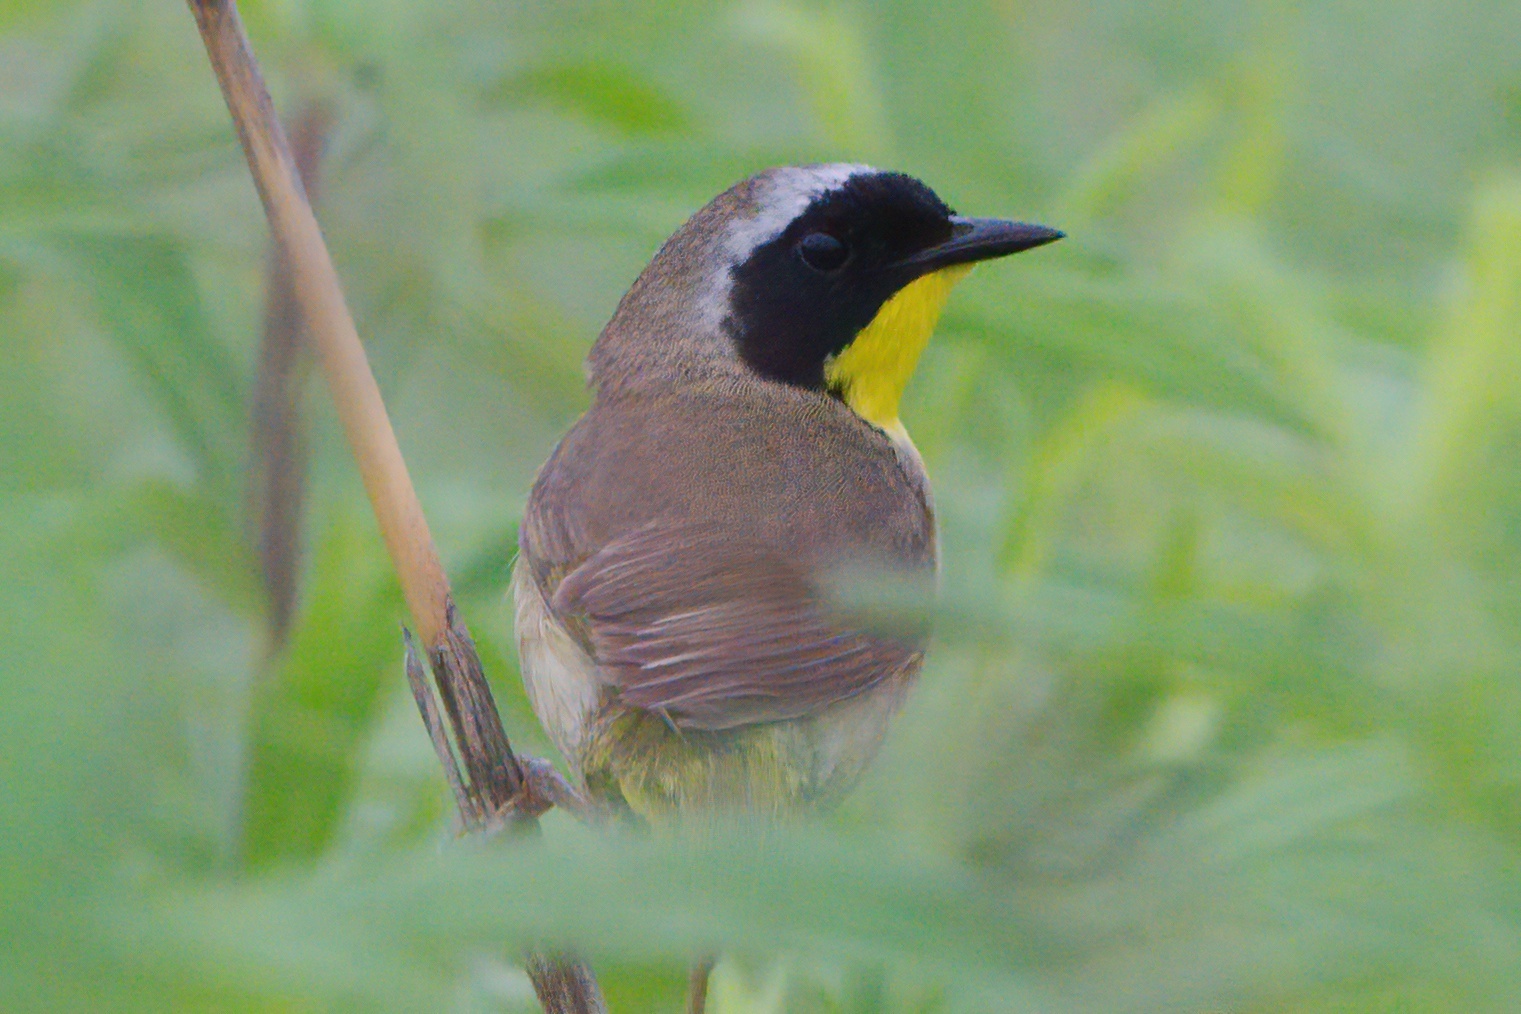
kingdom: Animalia
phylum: Chordata
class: Aves
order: Passeriformes
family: Parulidae
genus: Geothlypis
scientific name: Geothlypis trichas
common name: Common yellowthroat
